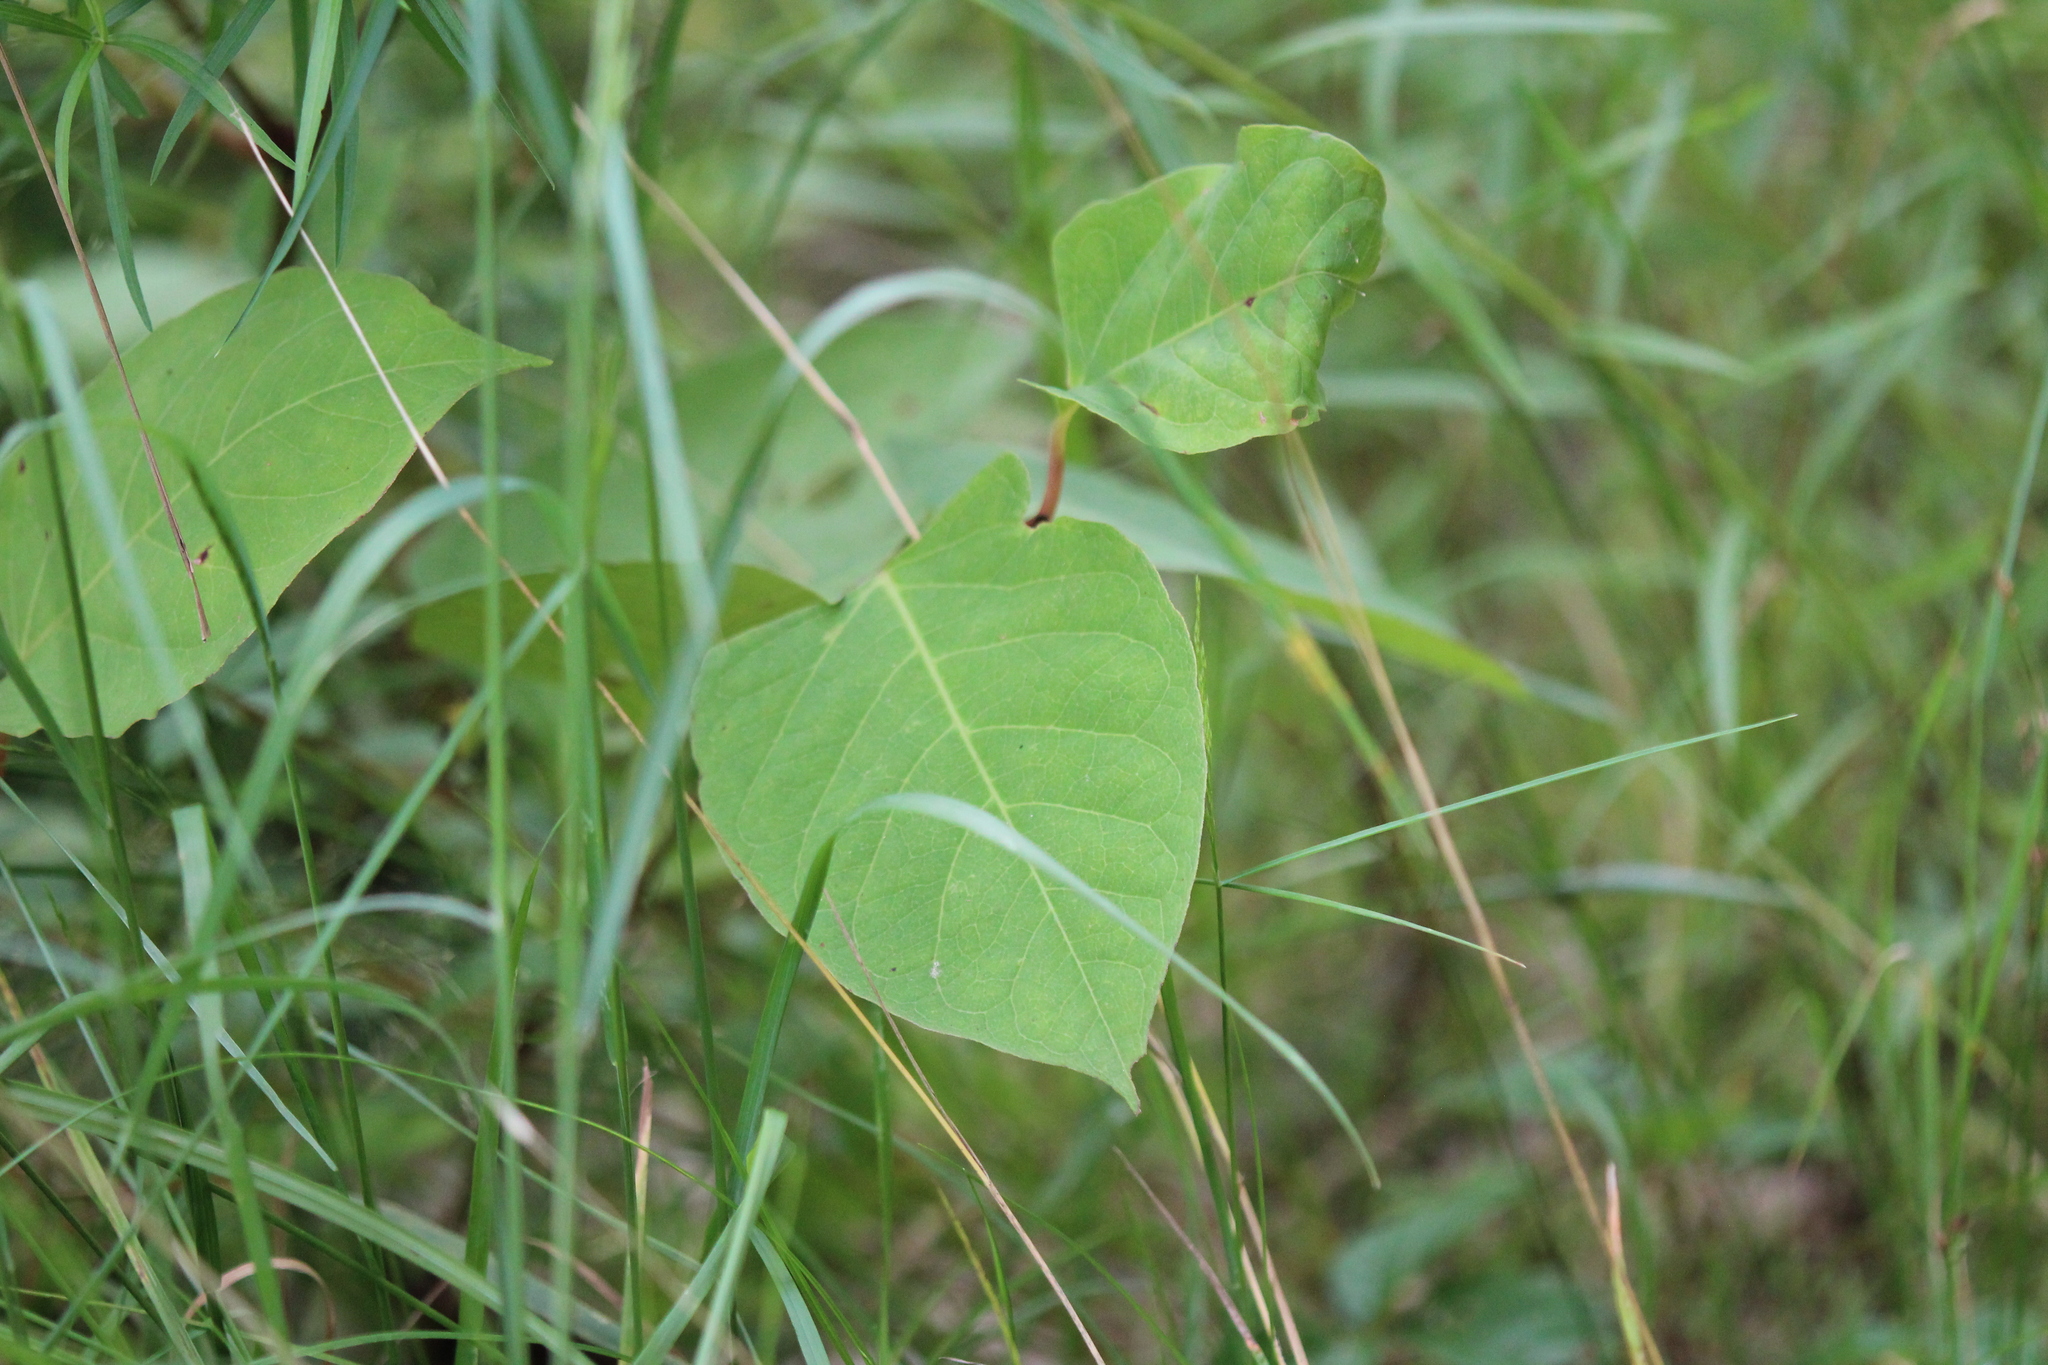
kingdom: Plantae
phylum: Tracheophyta
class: Magnoliopsida
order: Caryophyllales
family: Polygonaceae
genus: Reynoutria
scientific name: Reynoutria japonica
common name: Japanese knotweed
